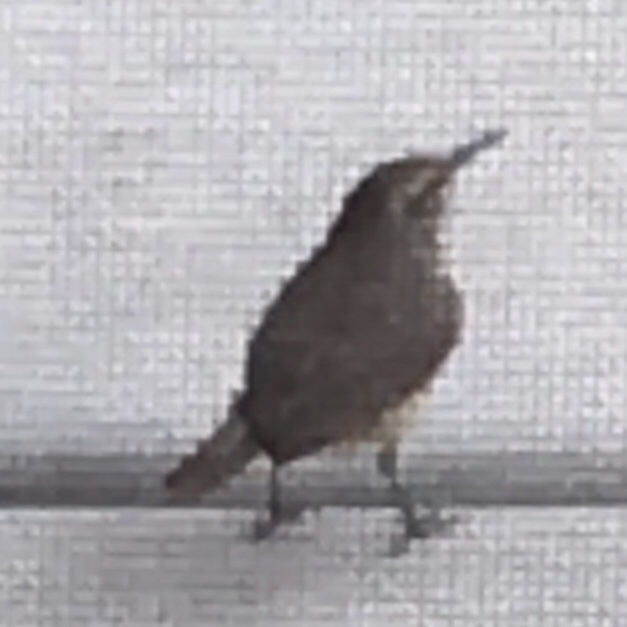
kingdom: Animalia
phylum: Chordata
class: Aves
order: Passeriformes
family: Troglodytidae
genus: Salpinctes
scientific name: Salpinctes obsoletus
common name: Rock wren
